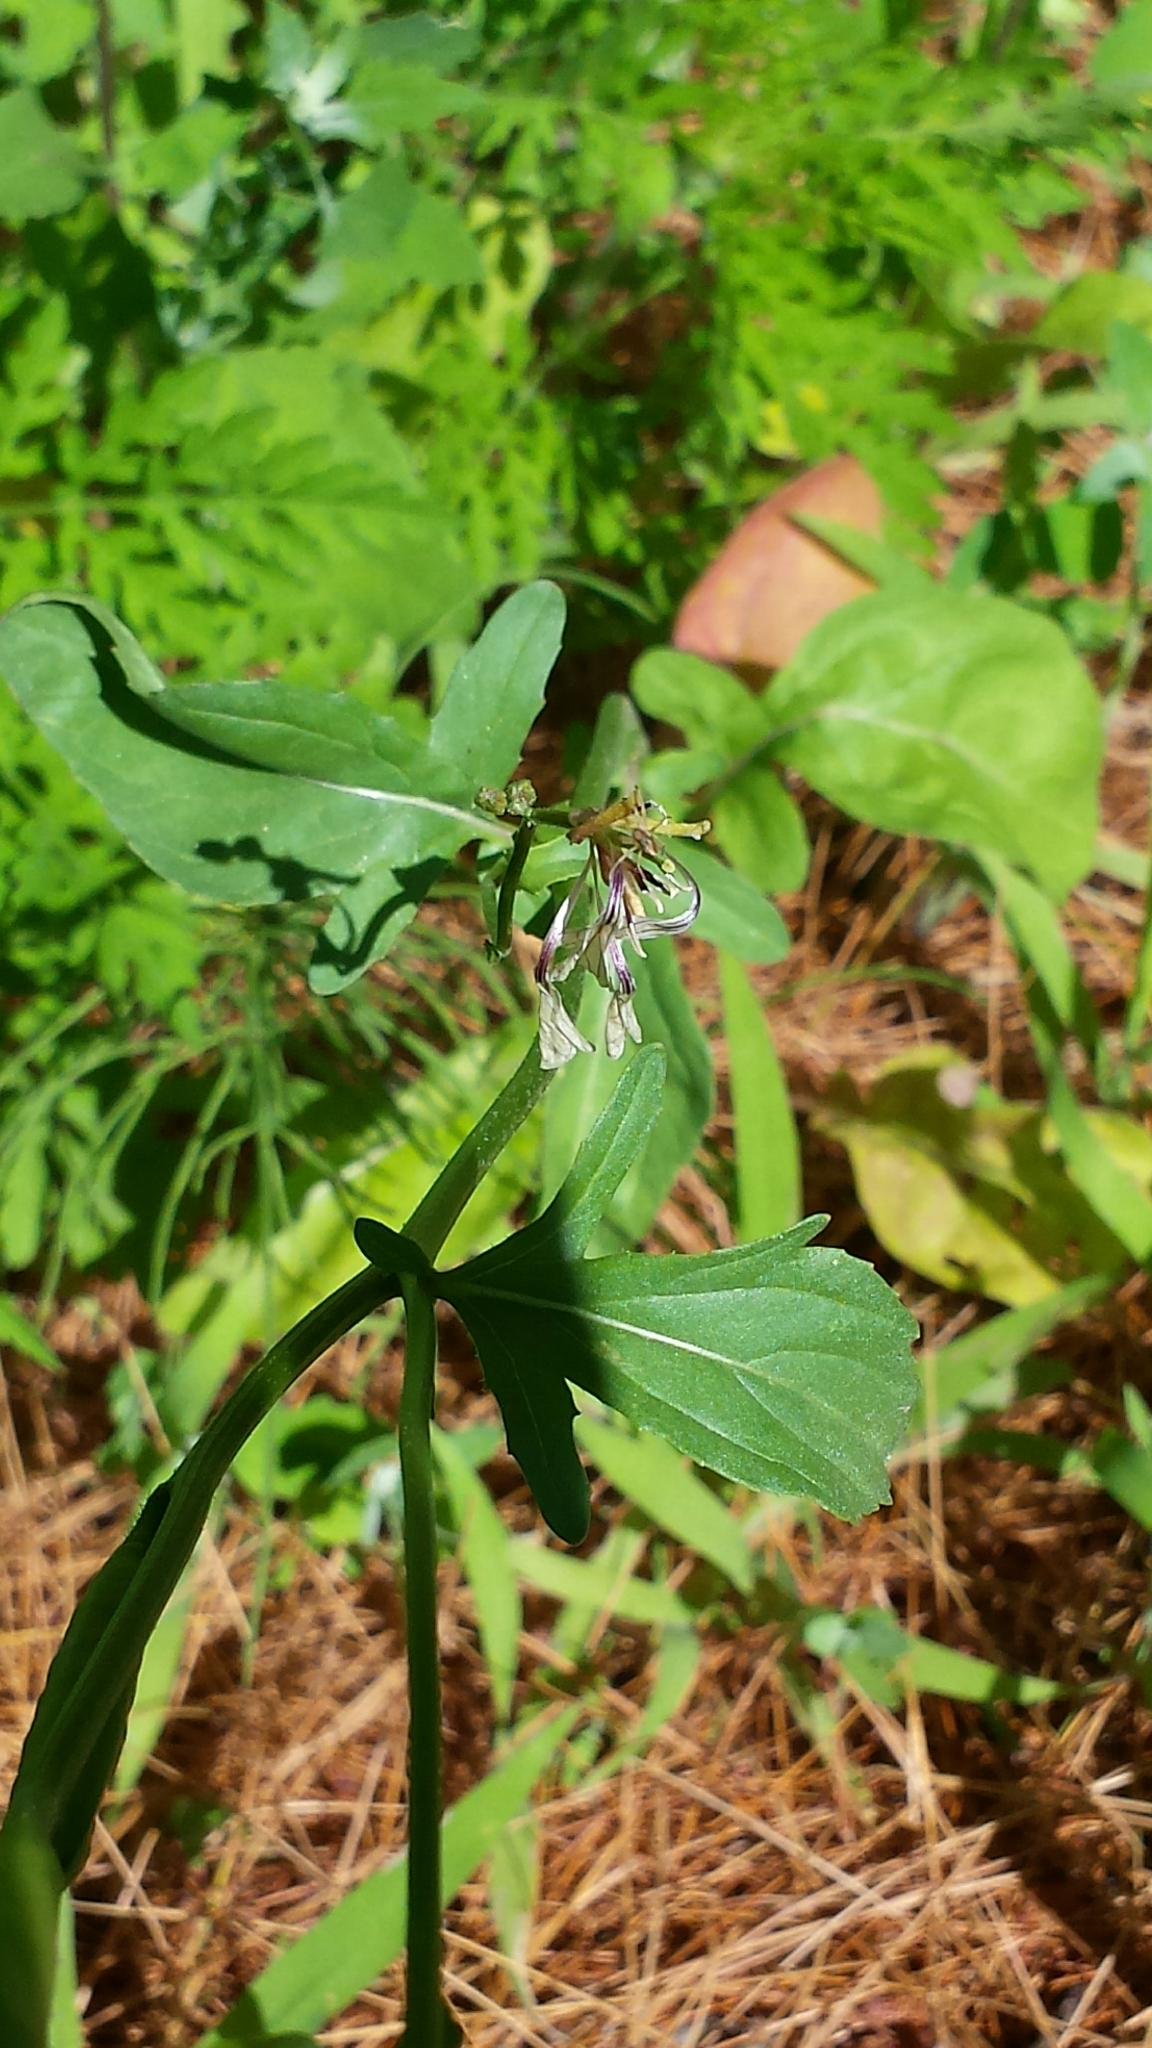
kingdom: Plantae
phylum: Tracheophyta
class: Magnoliopsida
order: Brassicales
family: Brassicaceae
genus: Raphanus
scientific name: Raphanus raphanistrum
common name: Wild radish
